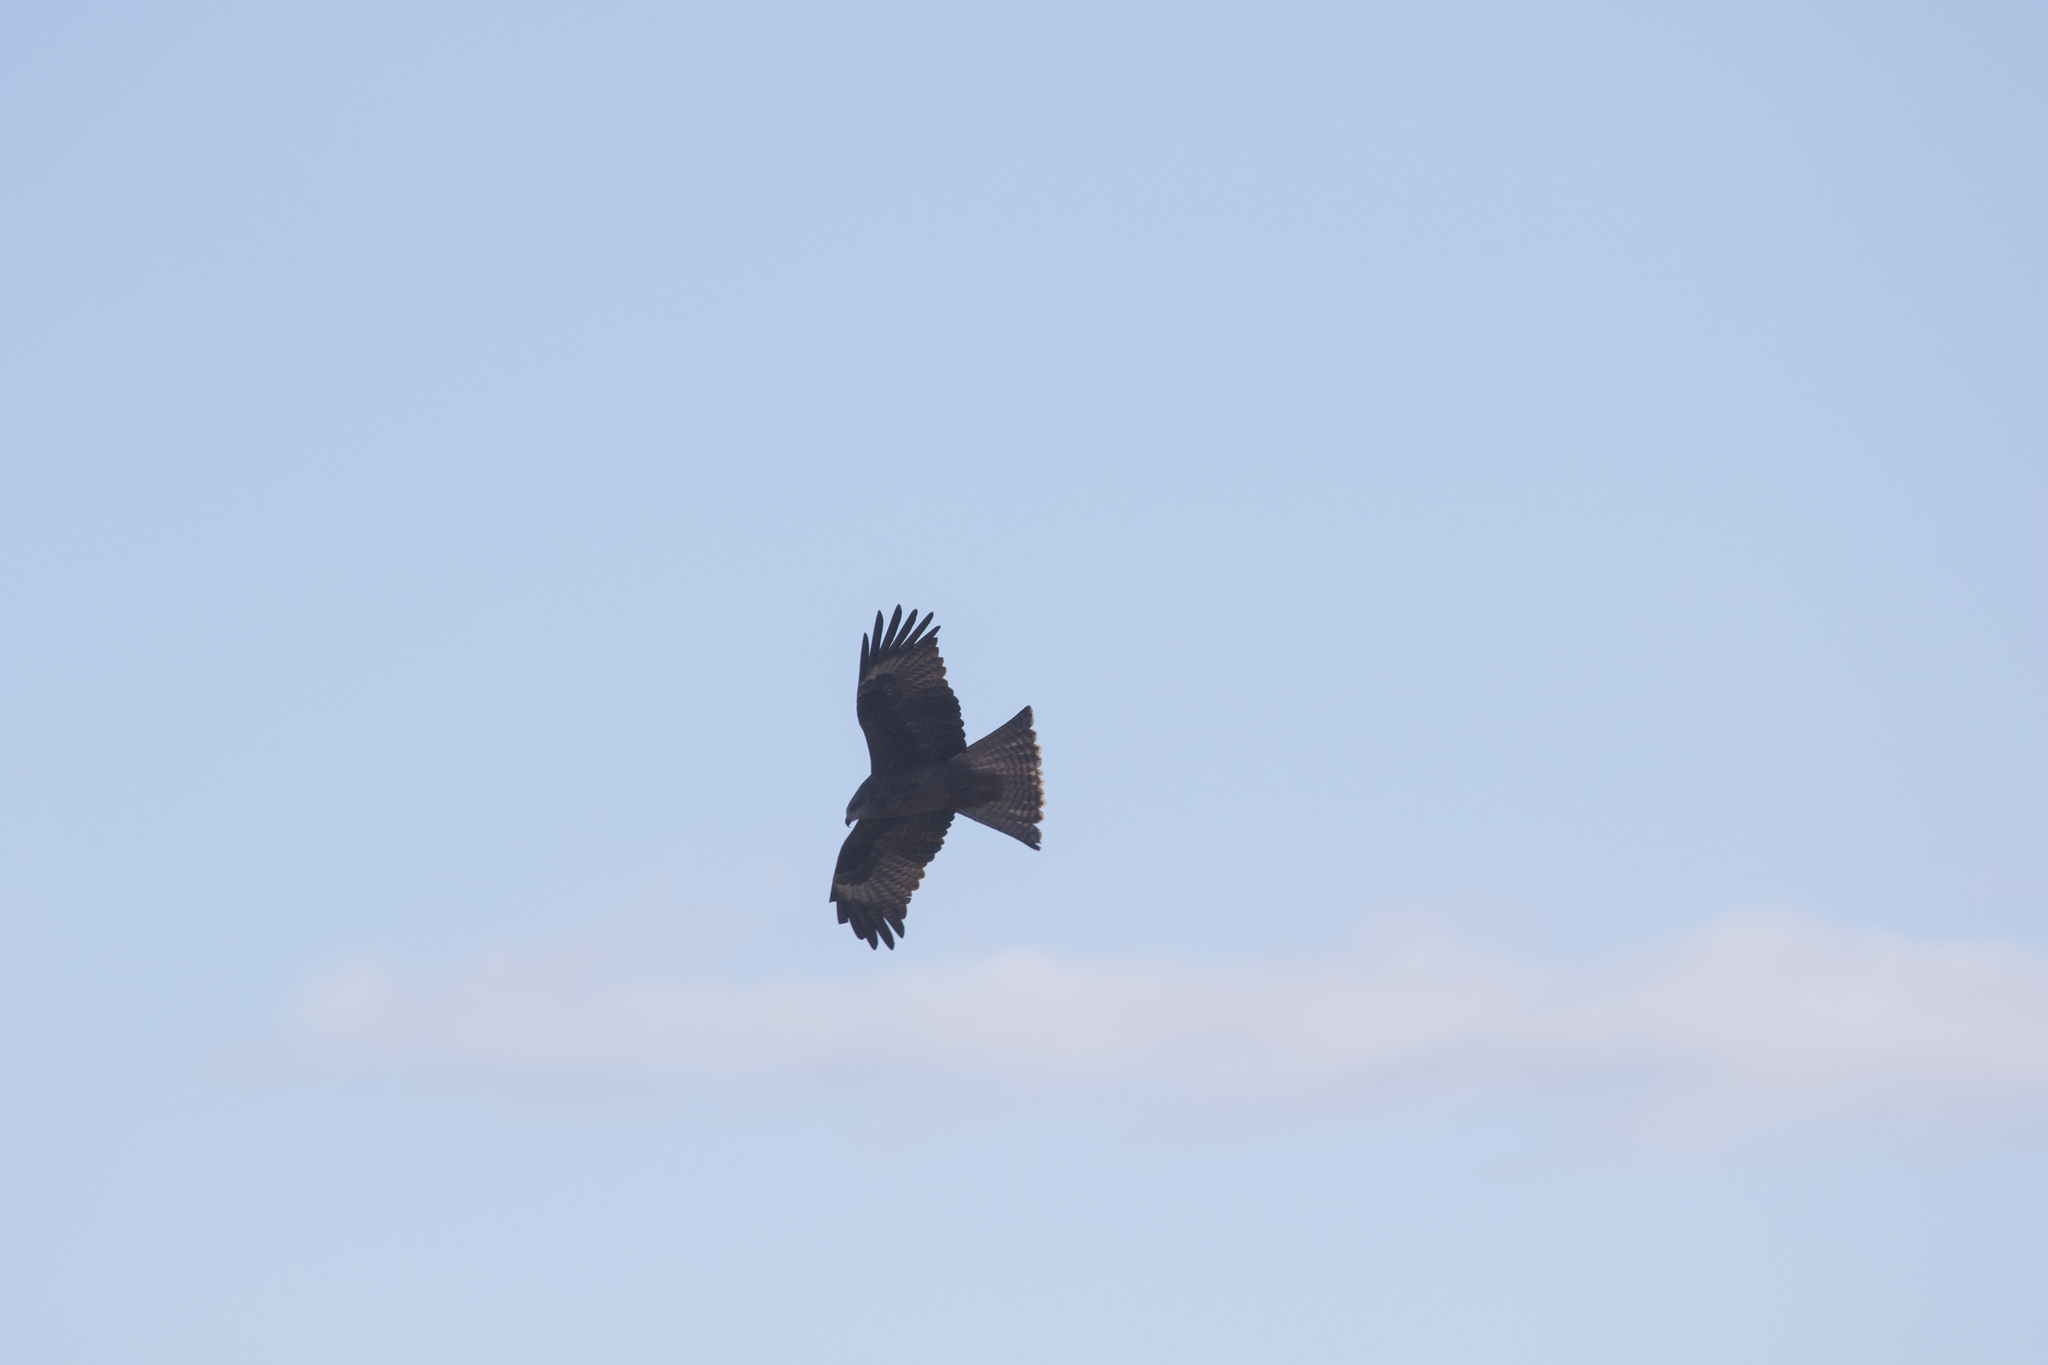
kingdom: Animalia
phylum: Chordata
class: Aves
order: Accipitriformes
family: Accipitridae
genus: Milvus
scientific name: Milvus migrans
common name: Black kite
